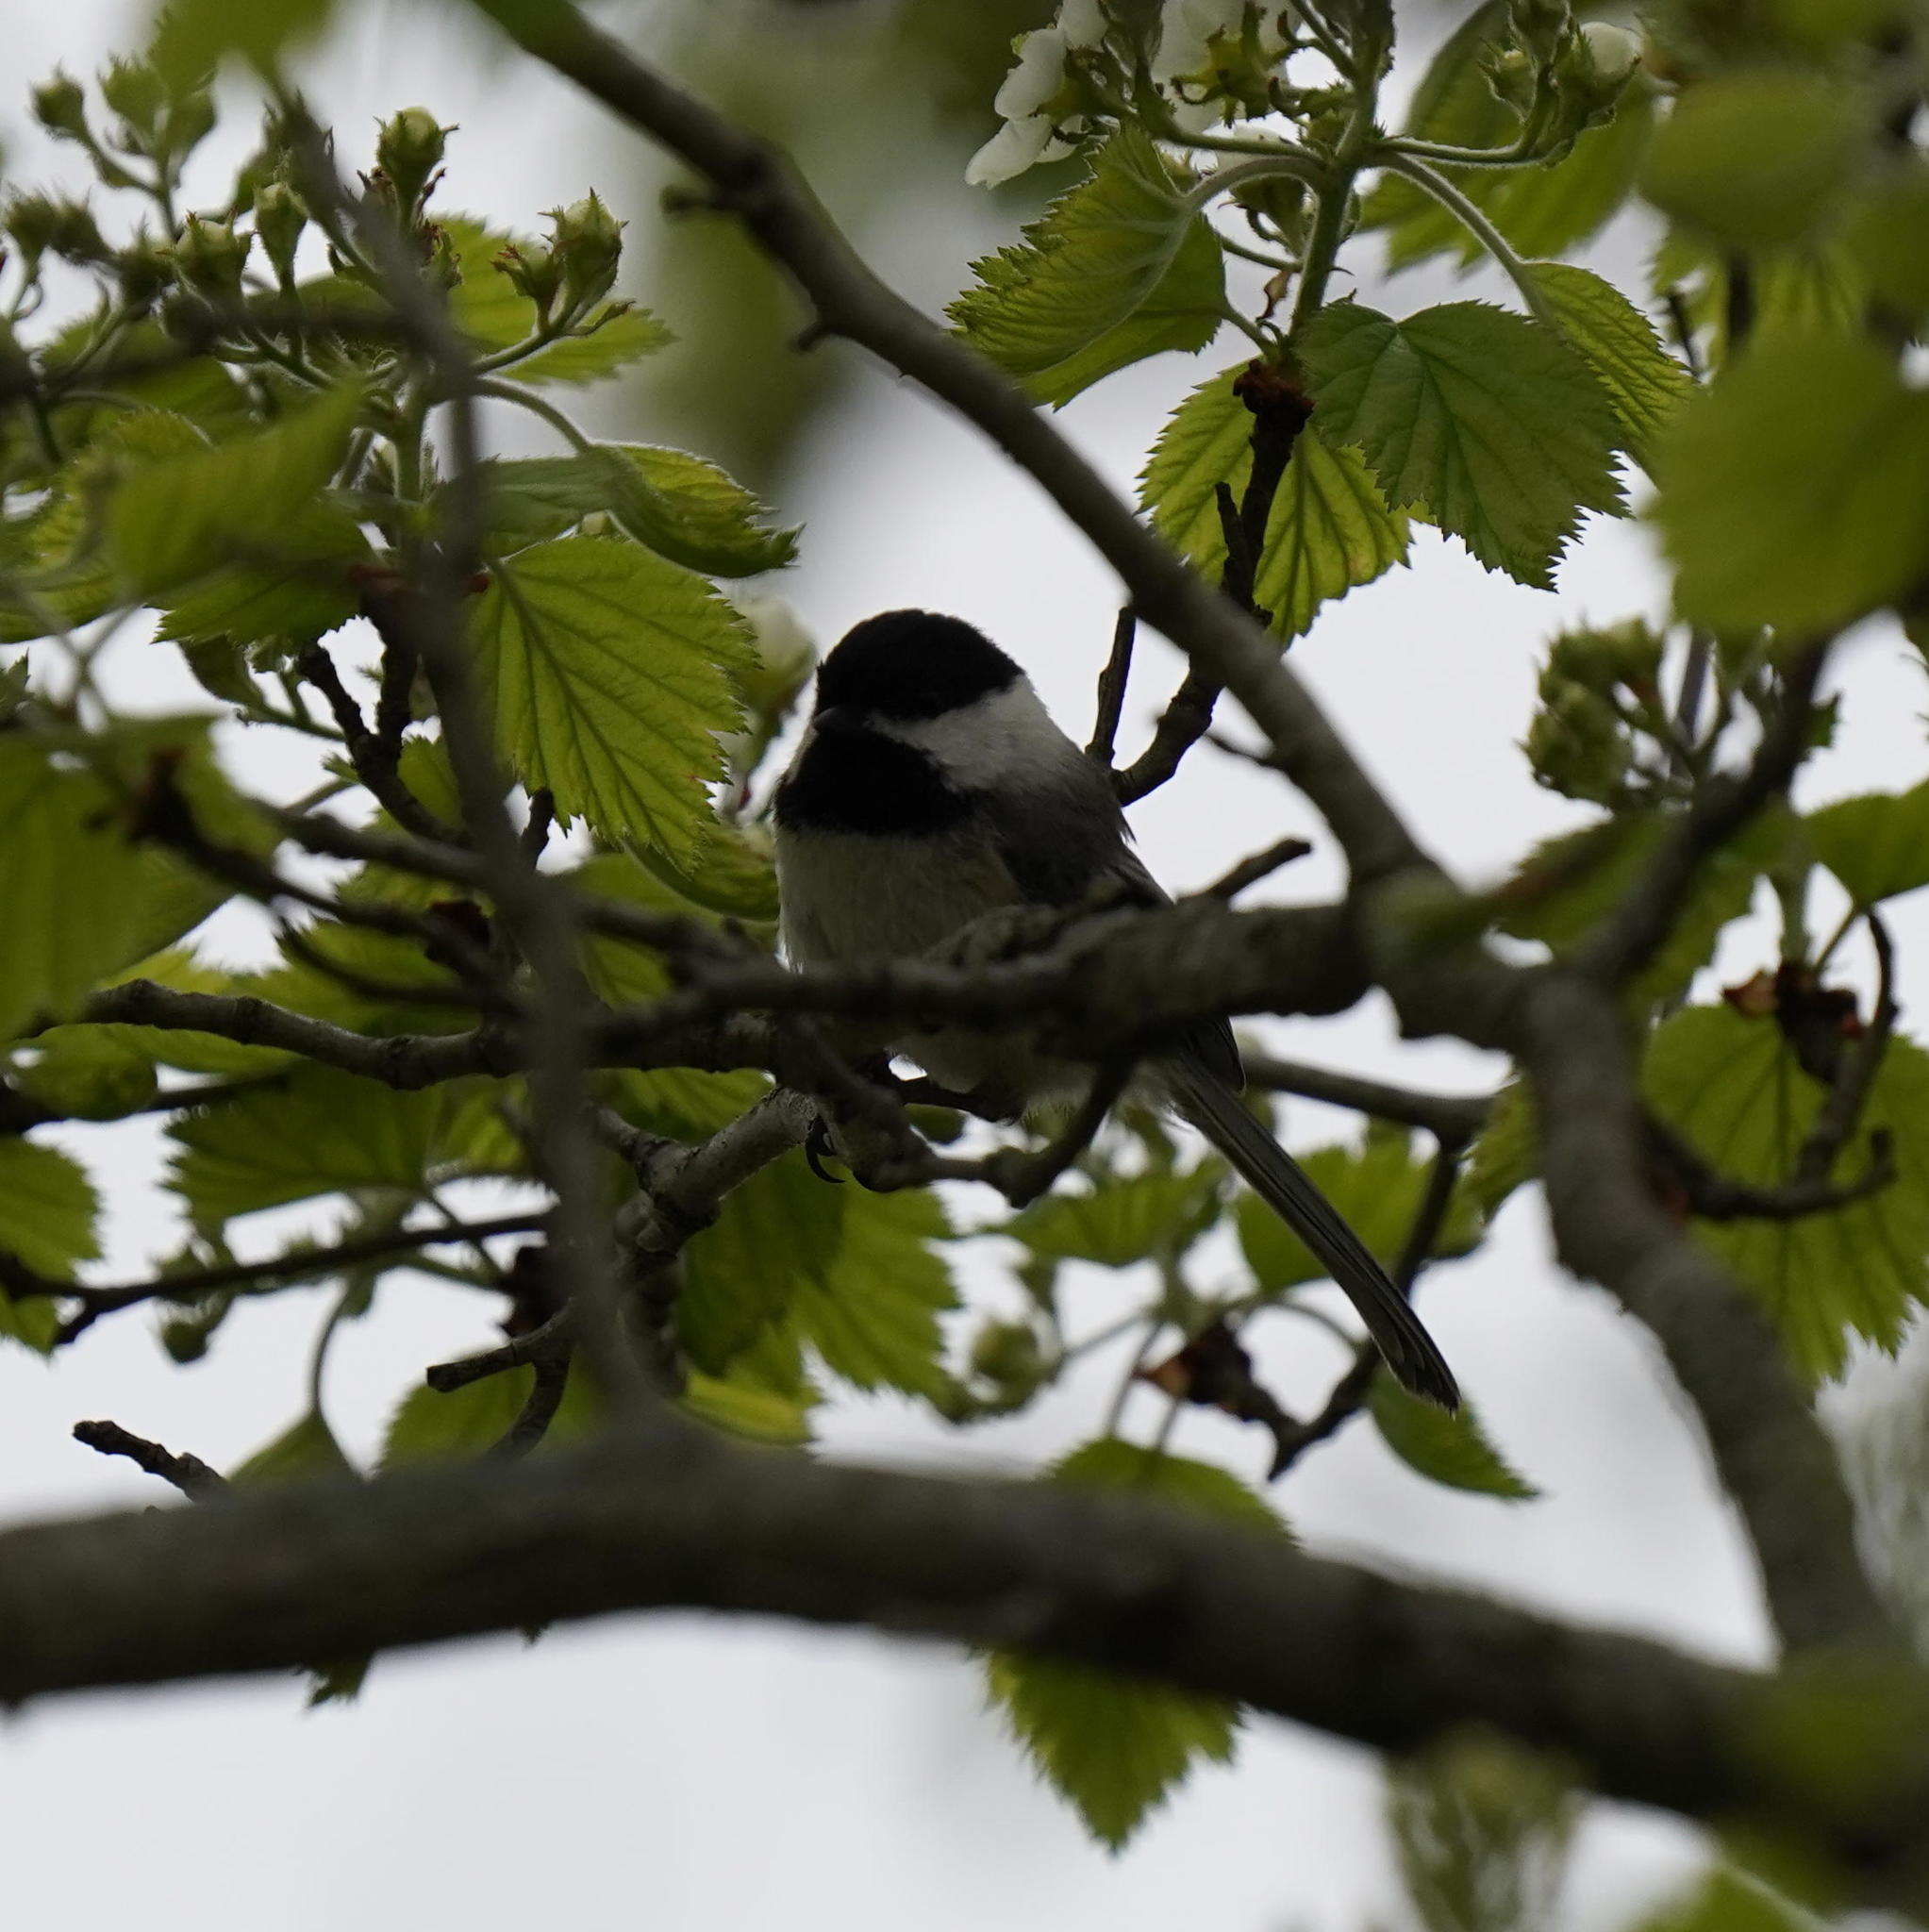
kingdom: Animalia
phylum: Chordata
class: Aves
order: Passeriformes
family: Paridae
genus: Poecile
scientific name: Poecile atricapillus
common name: Black-capped chickadee
